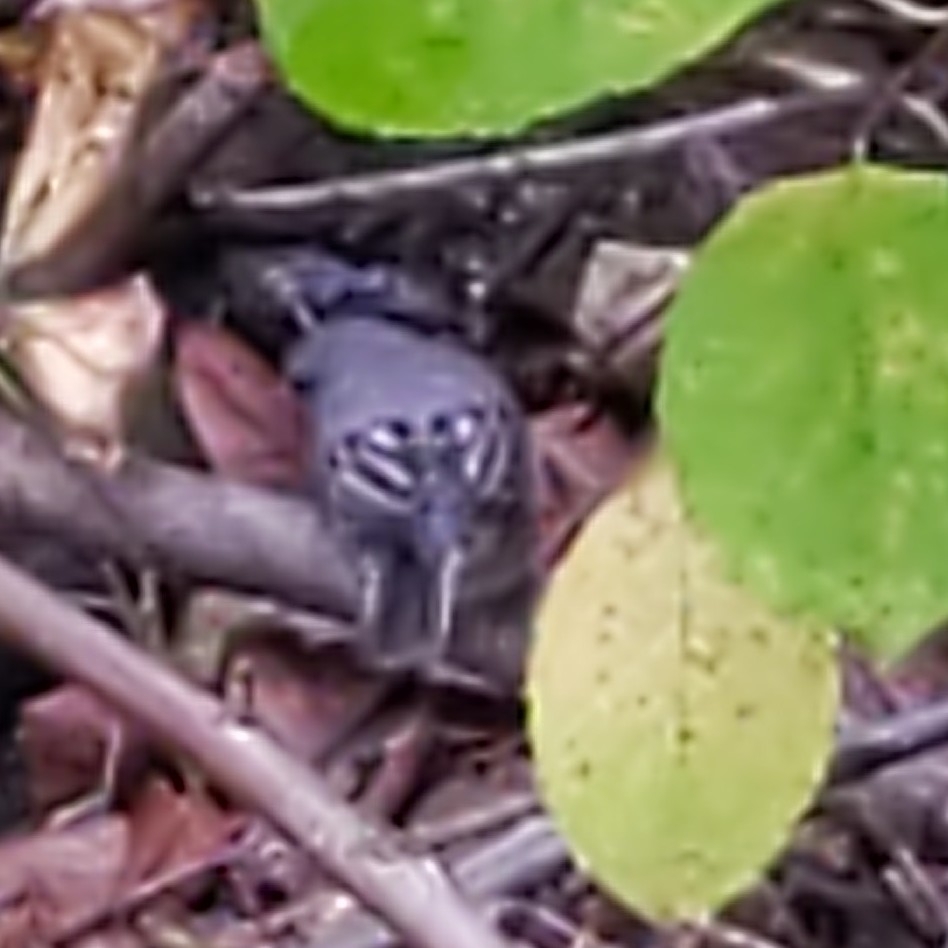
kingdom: Animalia
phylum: Chordata
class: Aves
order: Passeriformes
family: Passerellidae
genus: Junco
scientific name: Junco hyemalis
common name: Dark-eyed junco
